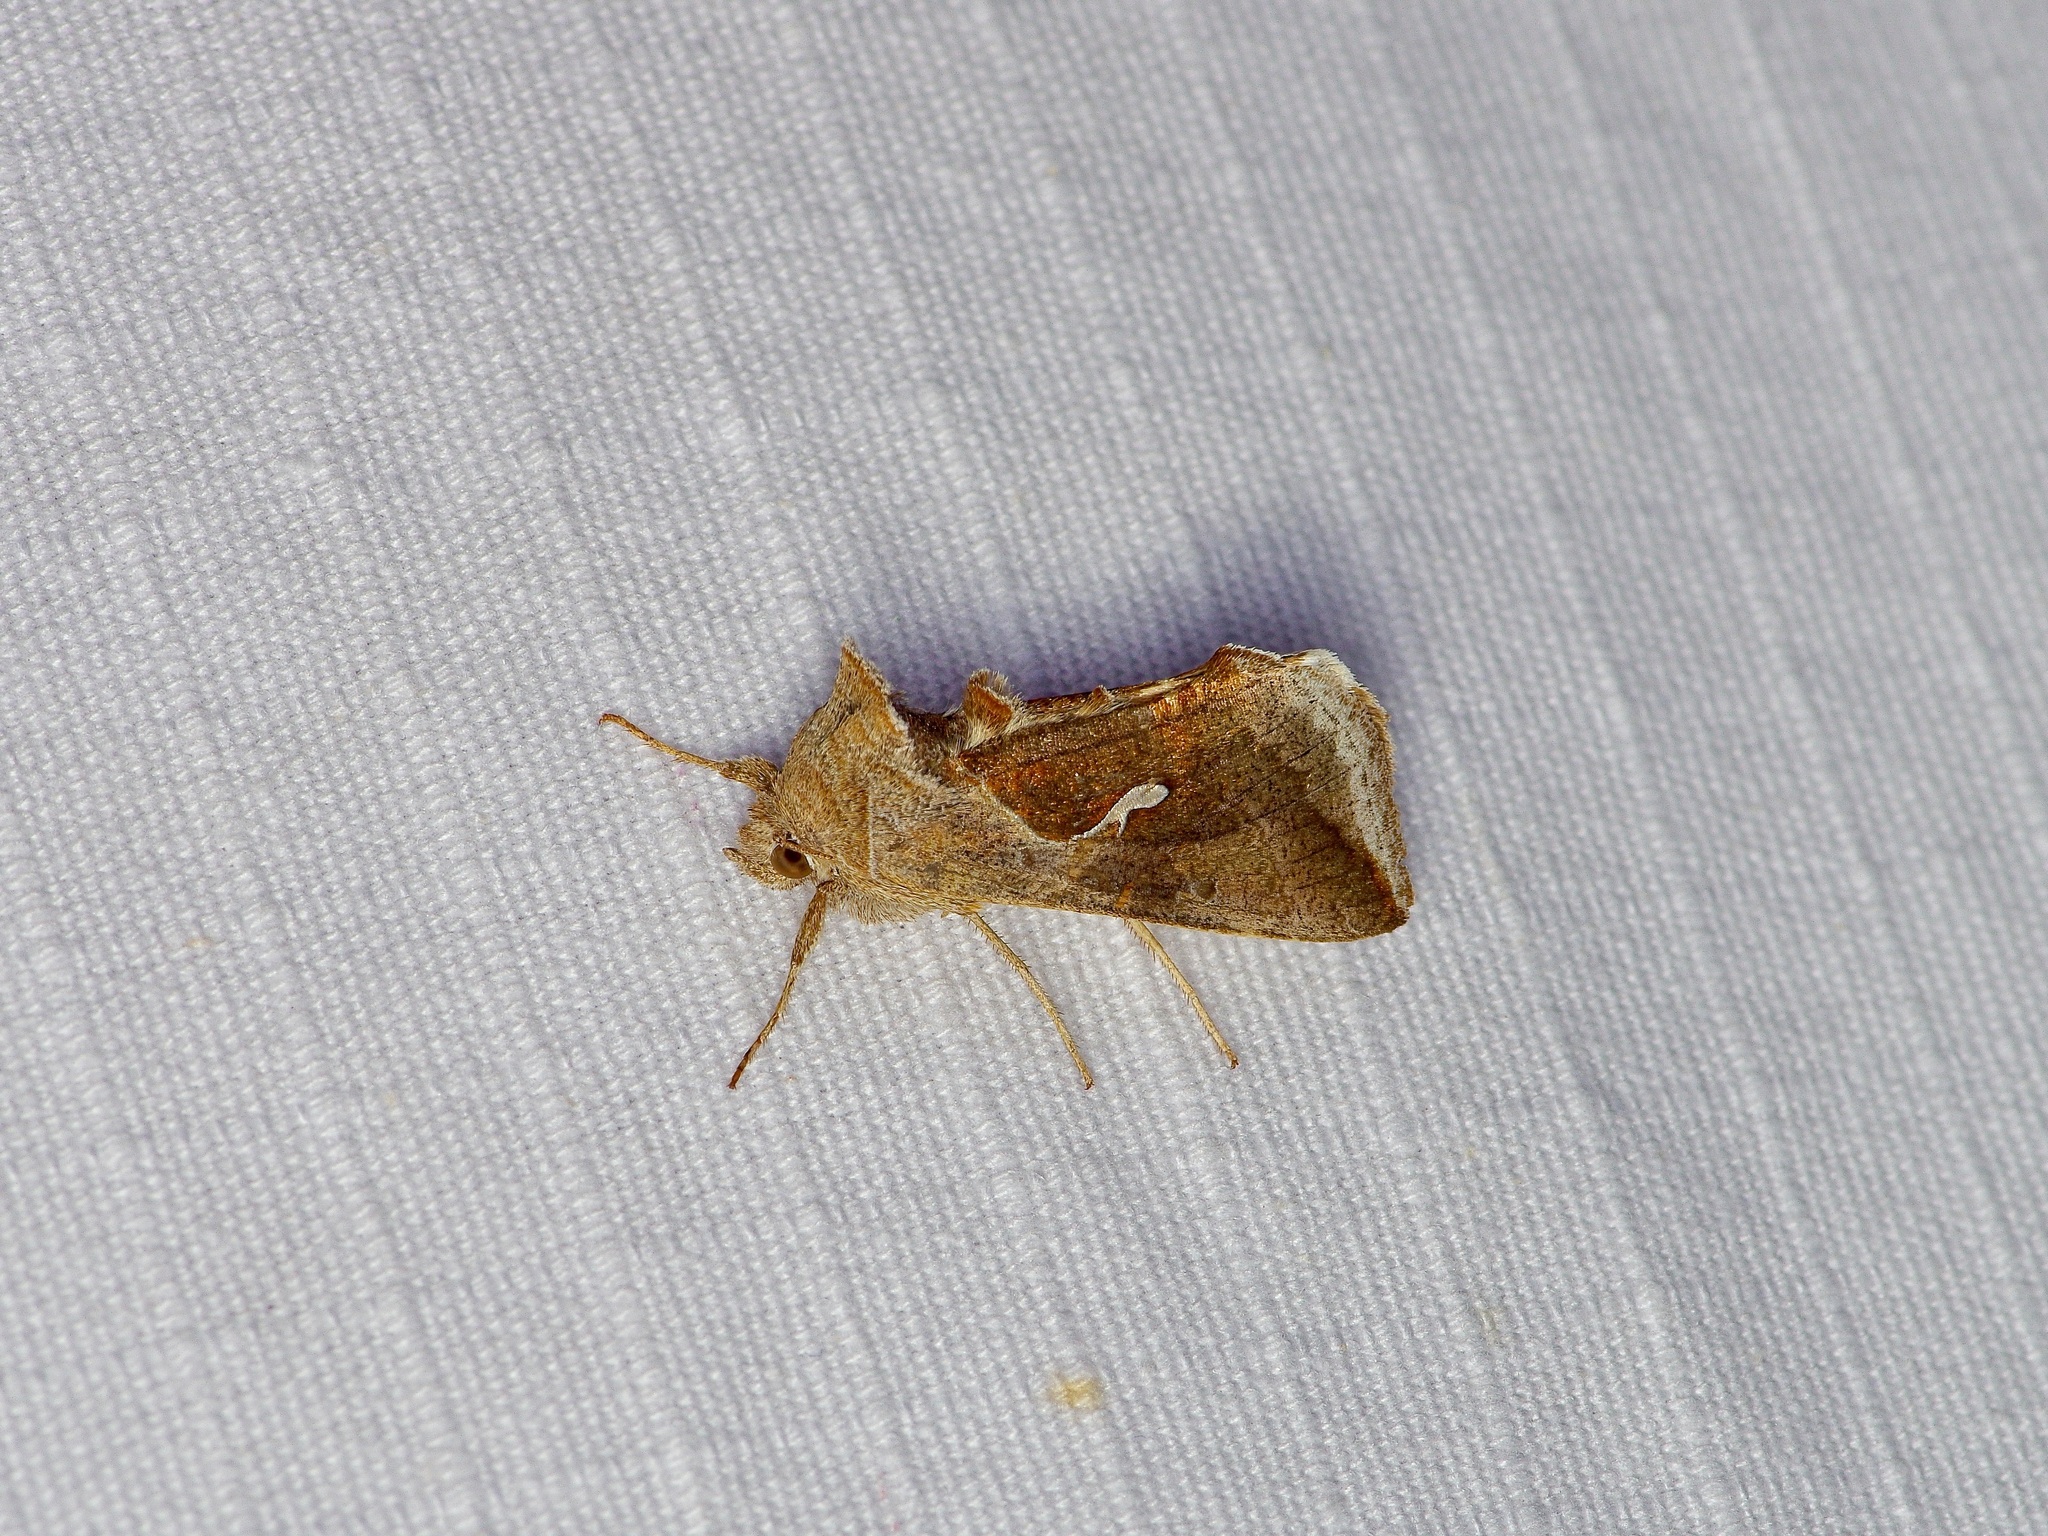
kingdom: Animalia
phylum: Arthropoda
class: Insecta
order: Lepidoptera
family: Noctuidae
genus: Anagrapha
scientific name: Anagrapha falcifera
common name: Celery looper
